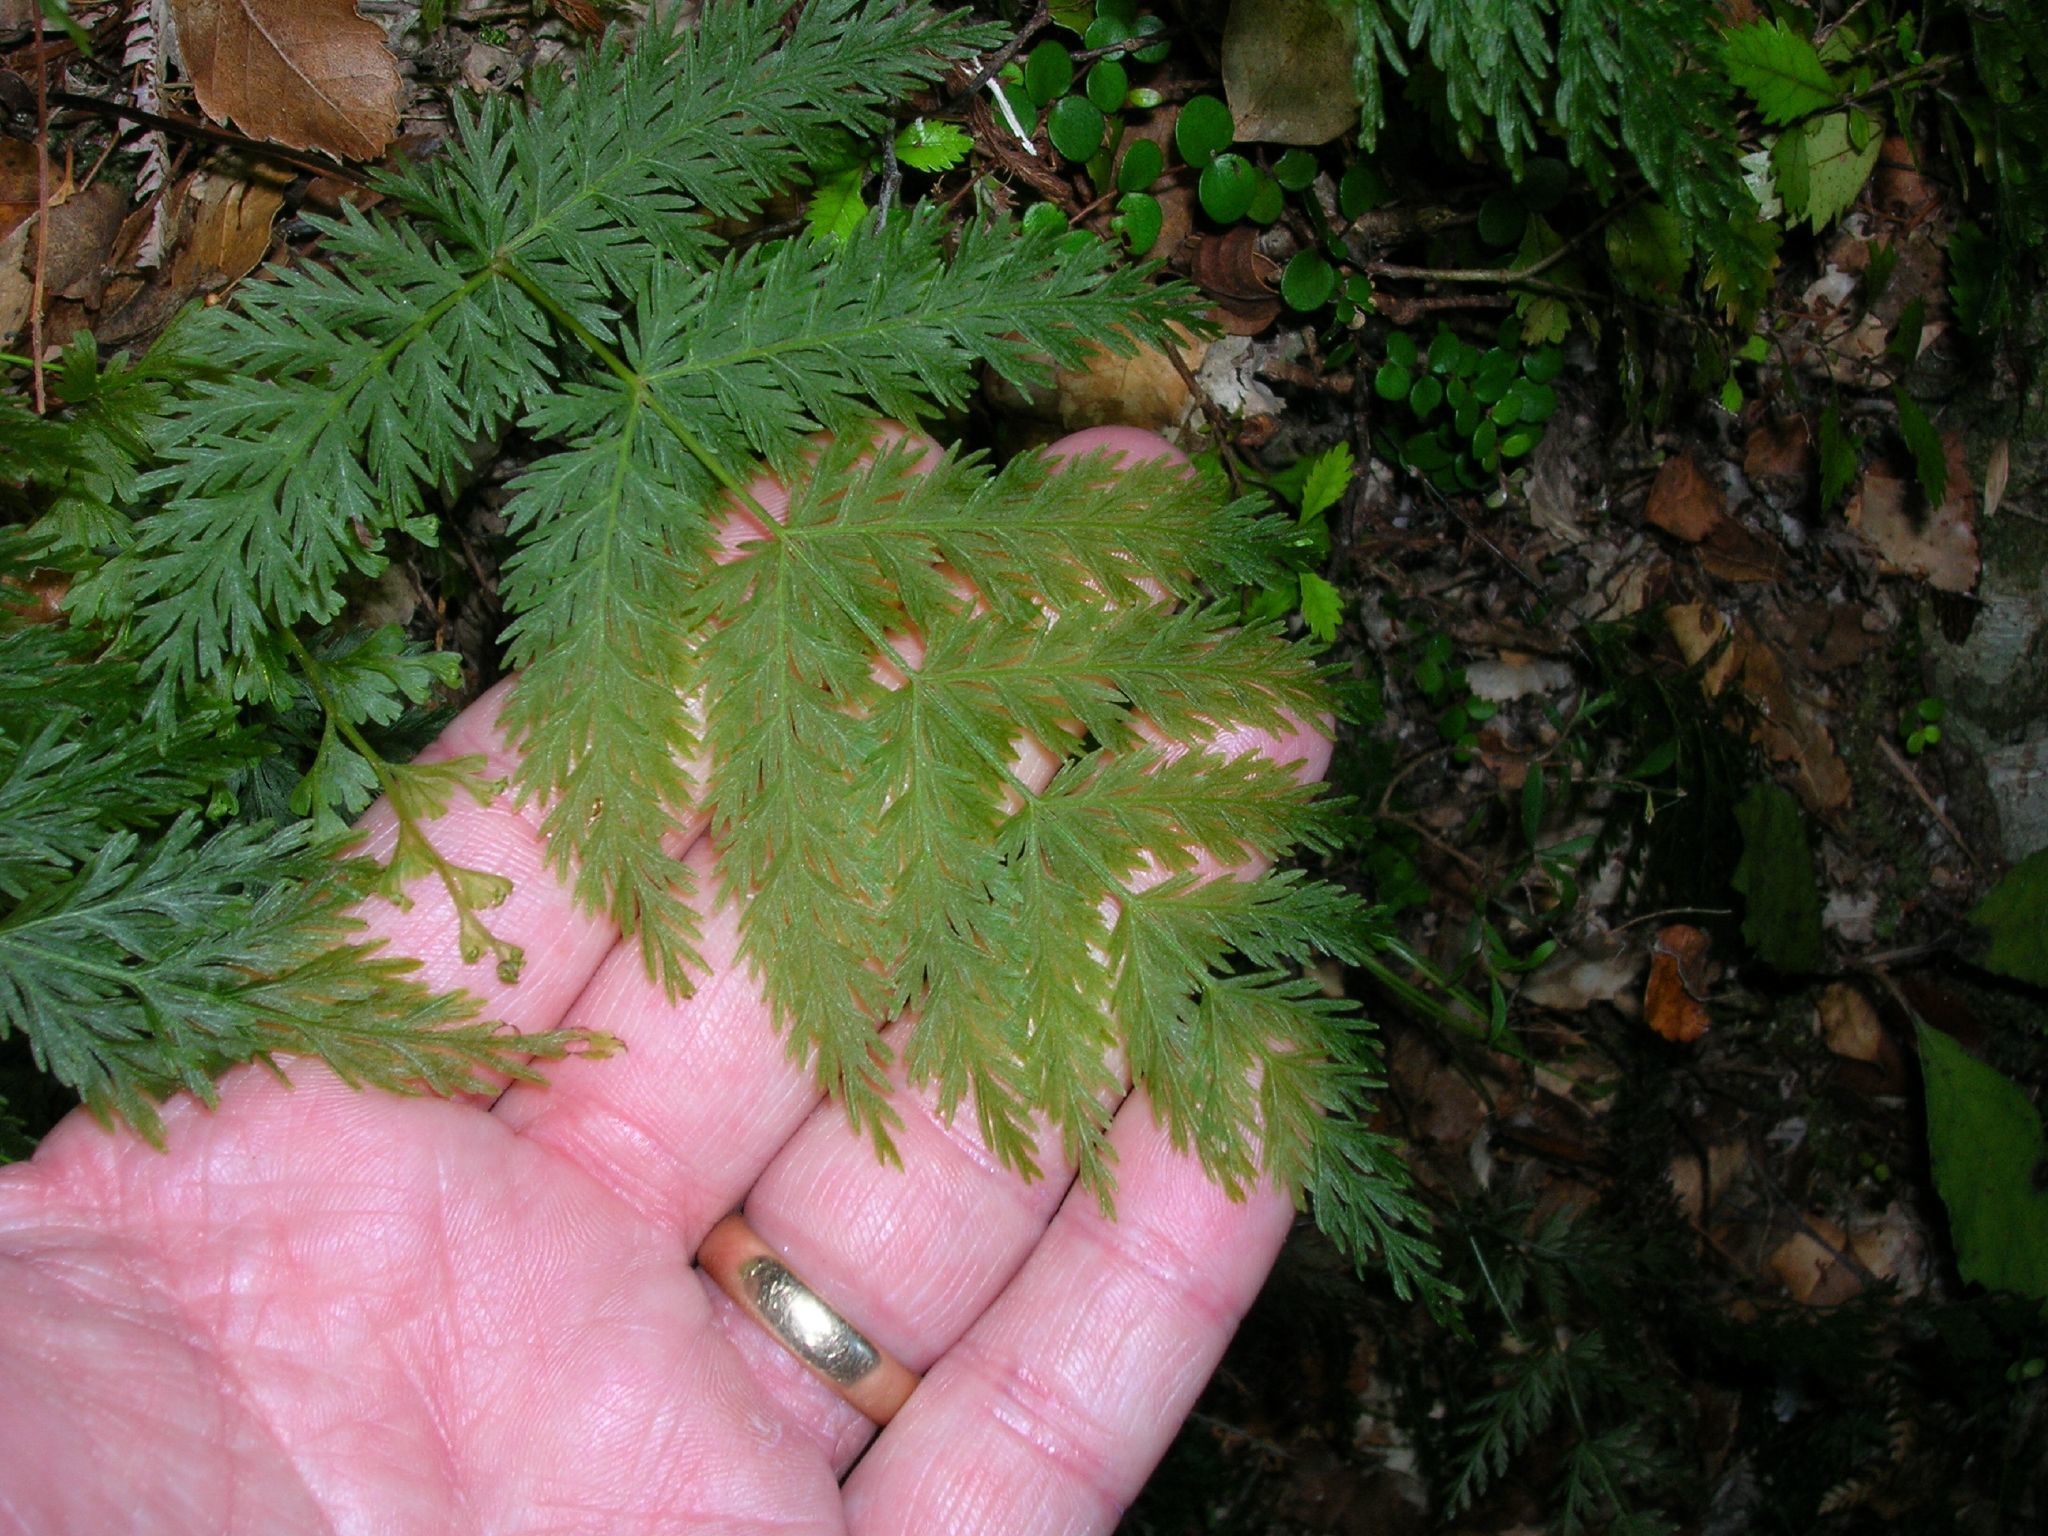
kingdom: Plantae
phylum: Tracheophyta
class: Polypodiopsida
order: Osmundales
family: Osmundaceae
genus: Leptopteris
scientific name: Leptopteris hymenophylloides
